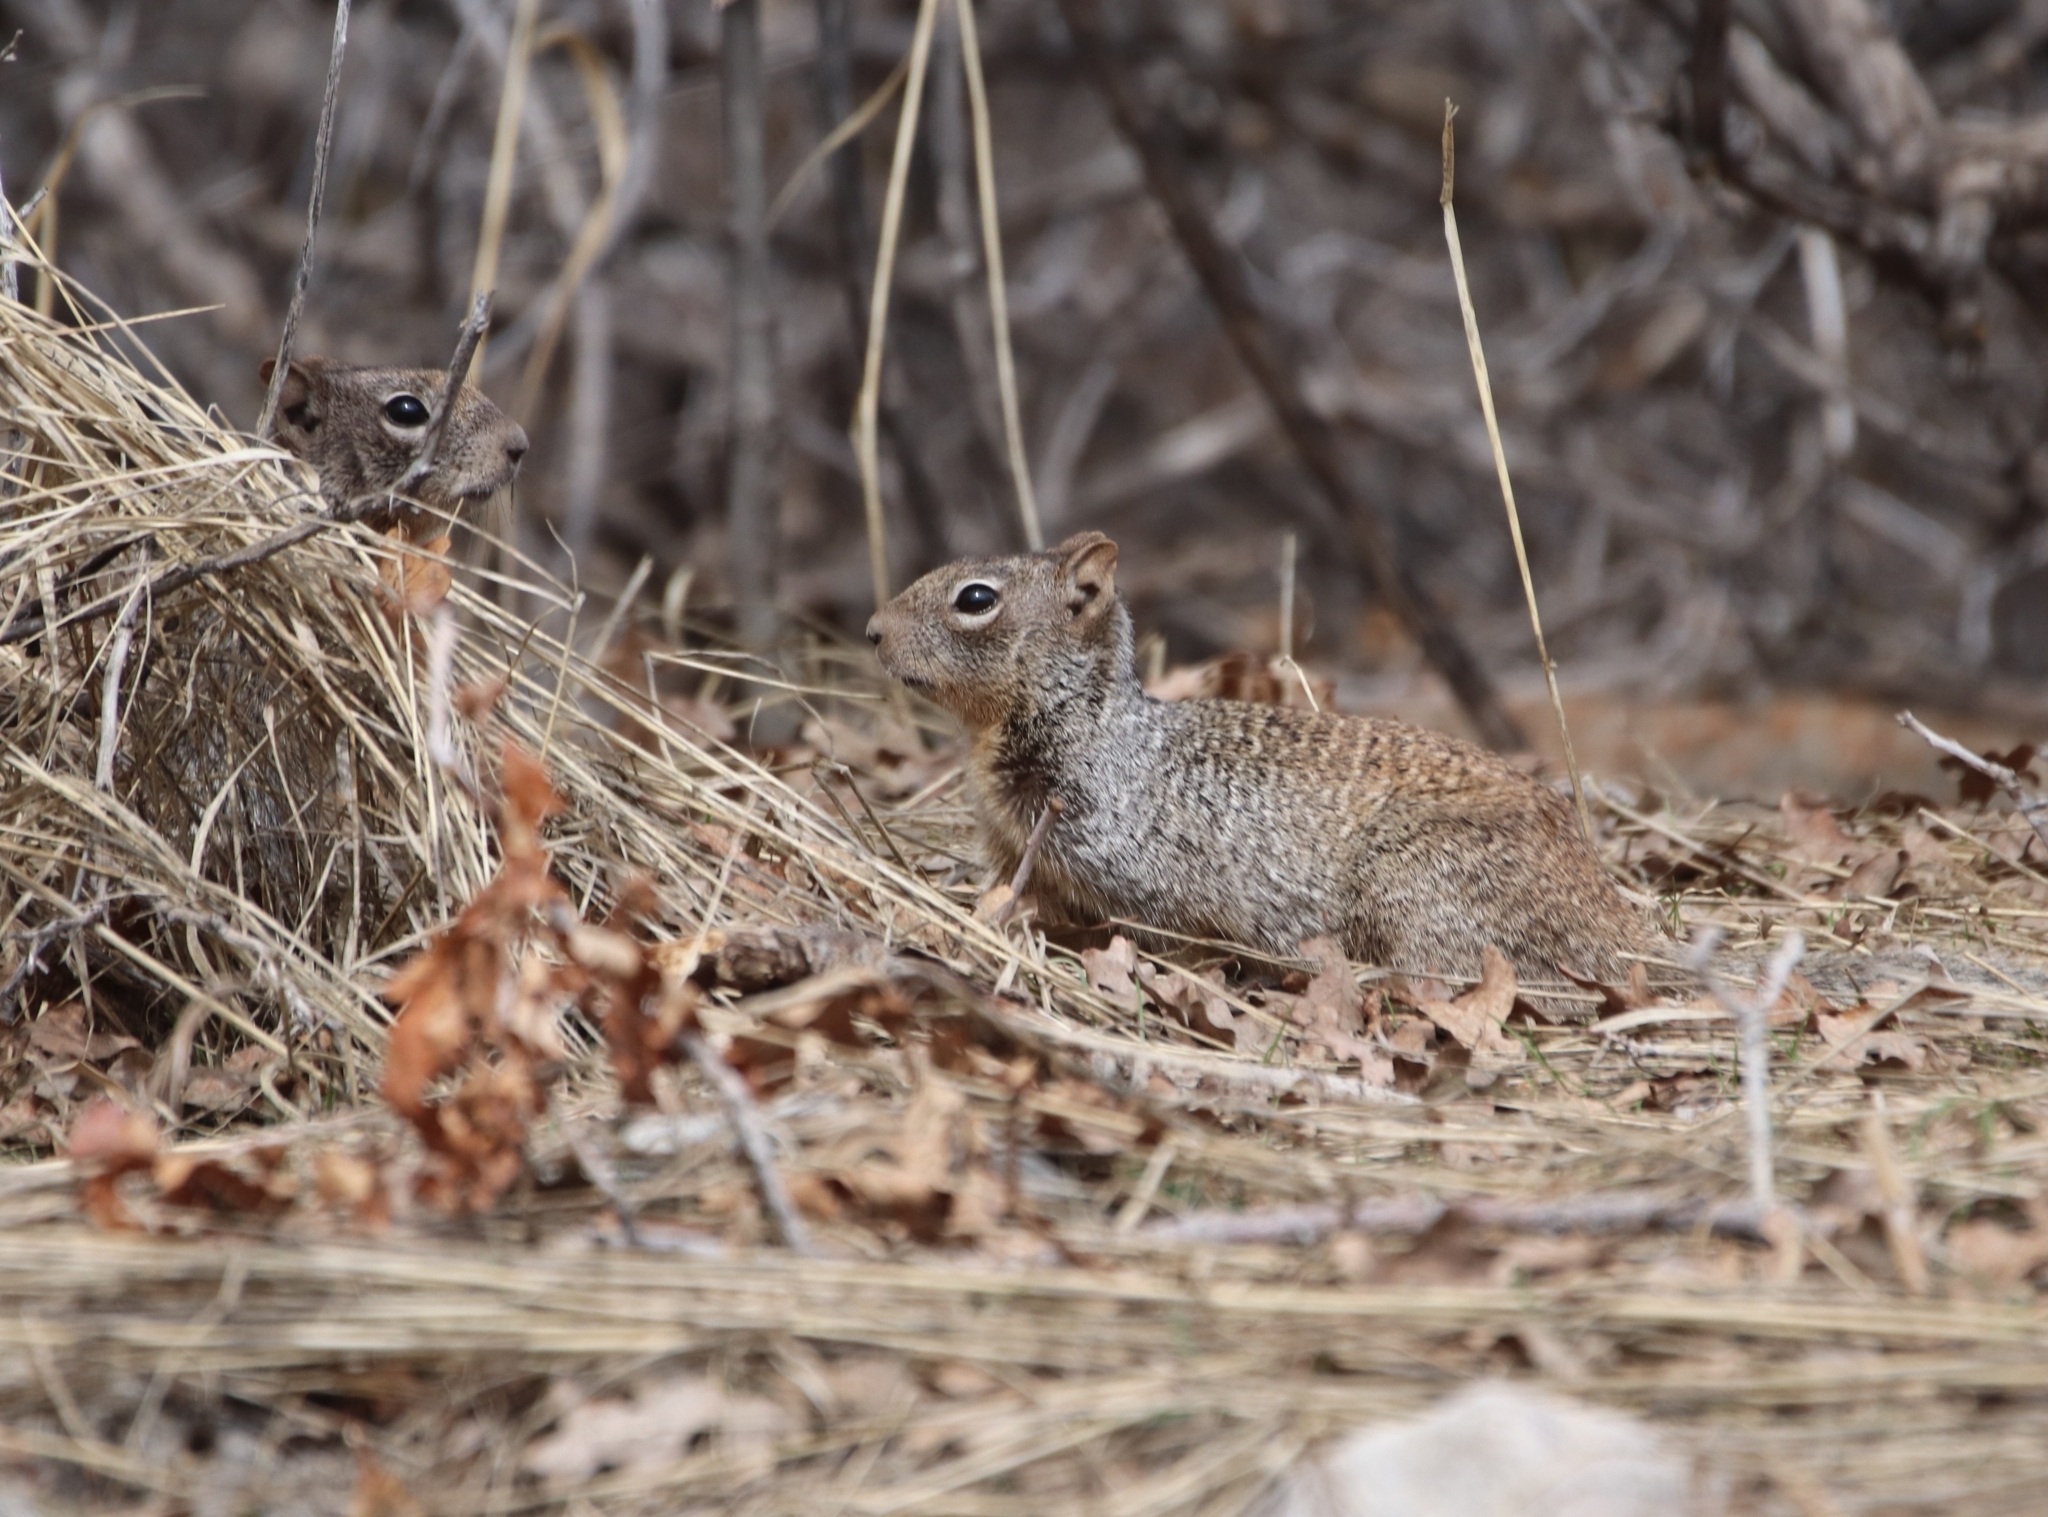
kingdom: Animalia
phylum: Chordata
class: Mammalia
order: Rodentia
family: Sciuridae
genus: Otospermophilus
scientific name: Otospermophilus variegatus
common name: Rock squirrel
